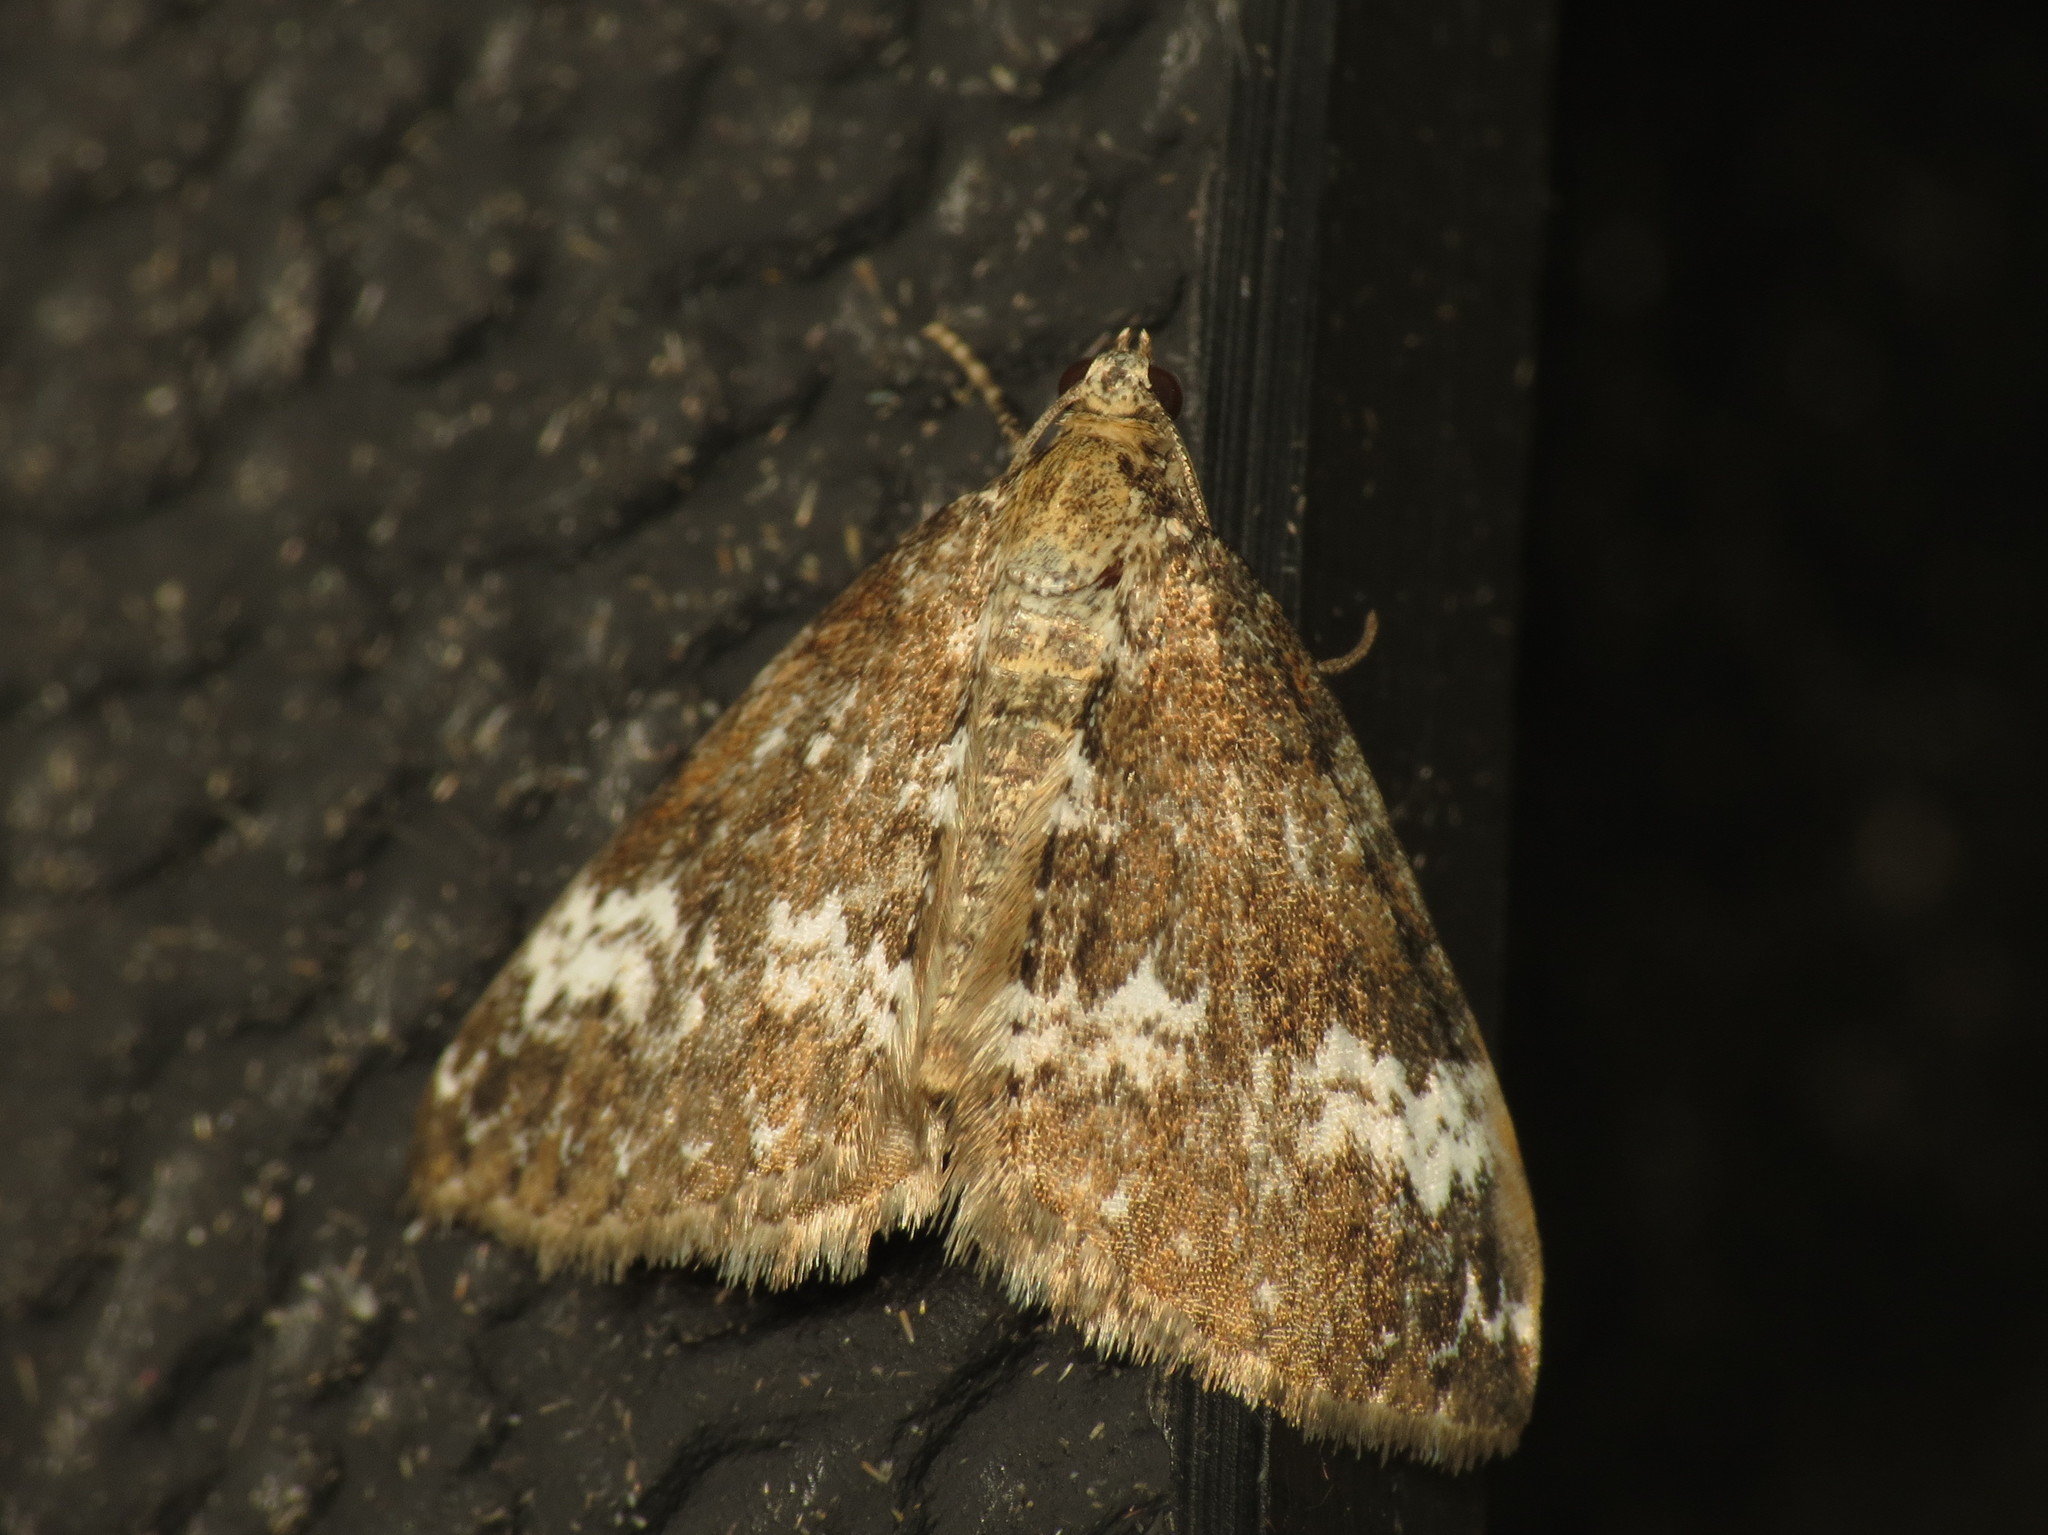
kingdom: Animalia
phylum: Arthropoda
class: Insecta
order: Lepidoptera
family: Geometridae
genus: Perizoma
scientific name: Perizoma alchemillata
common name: Small rivulet
